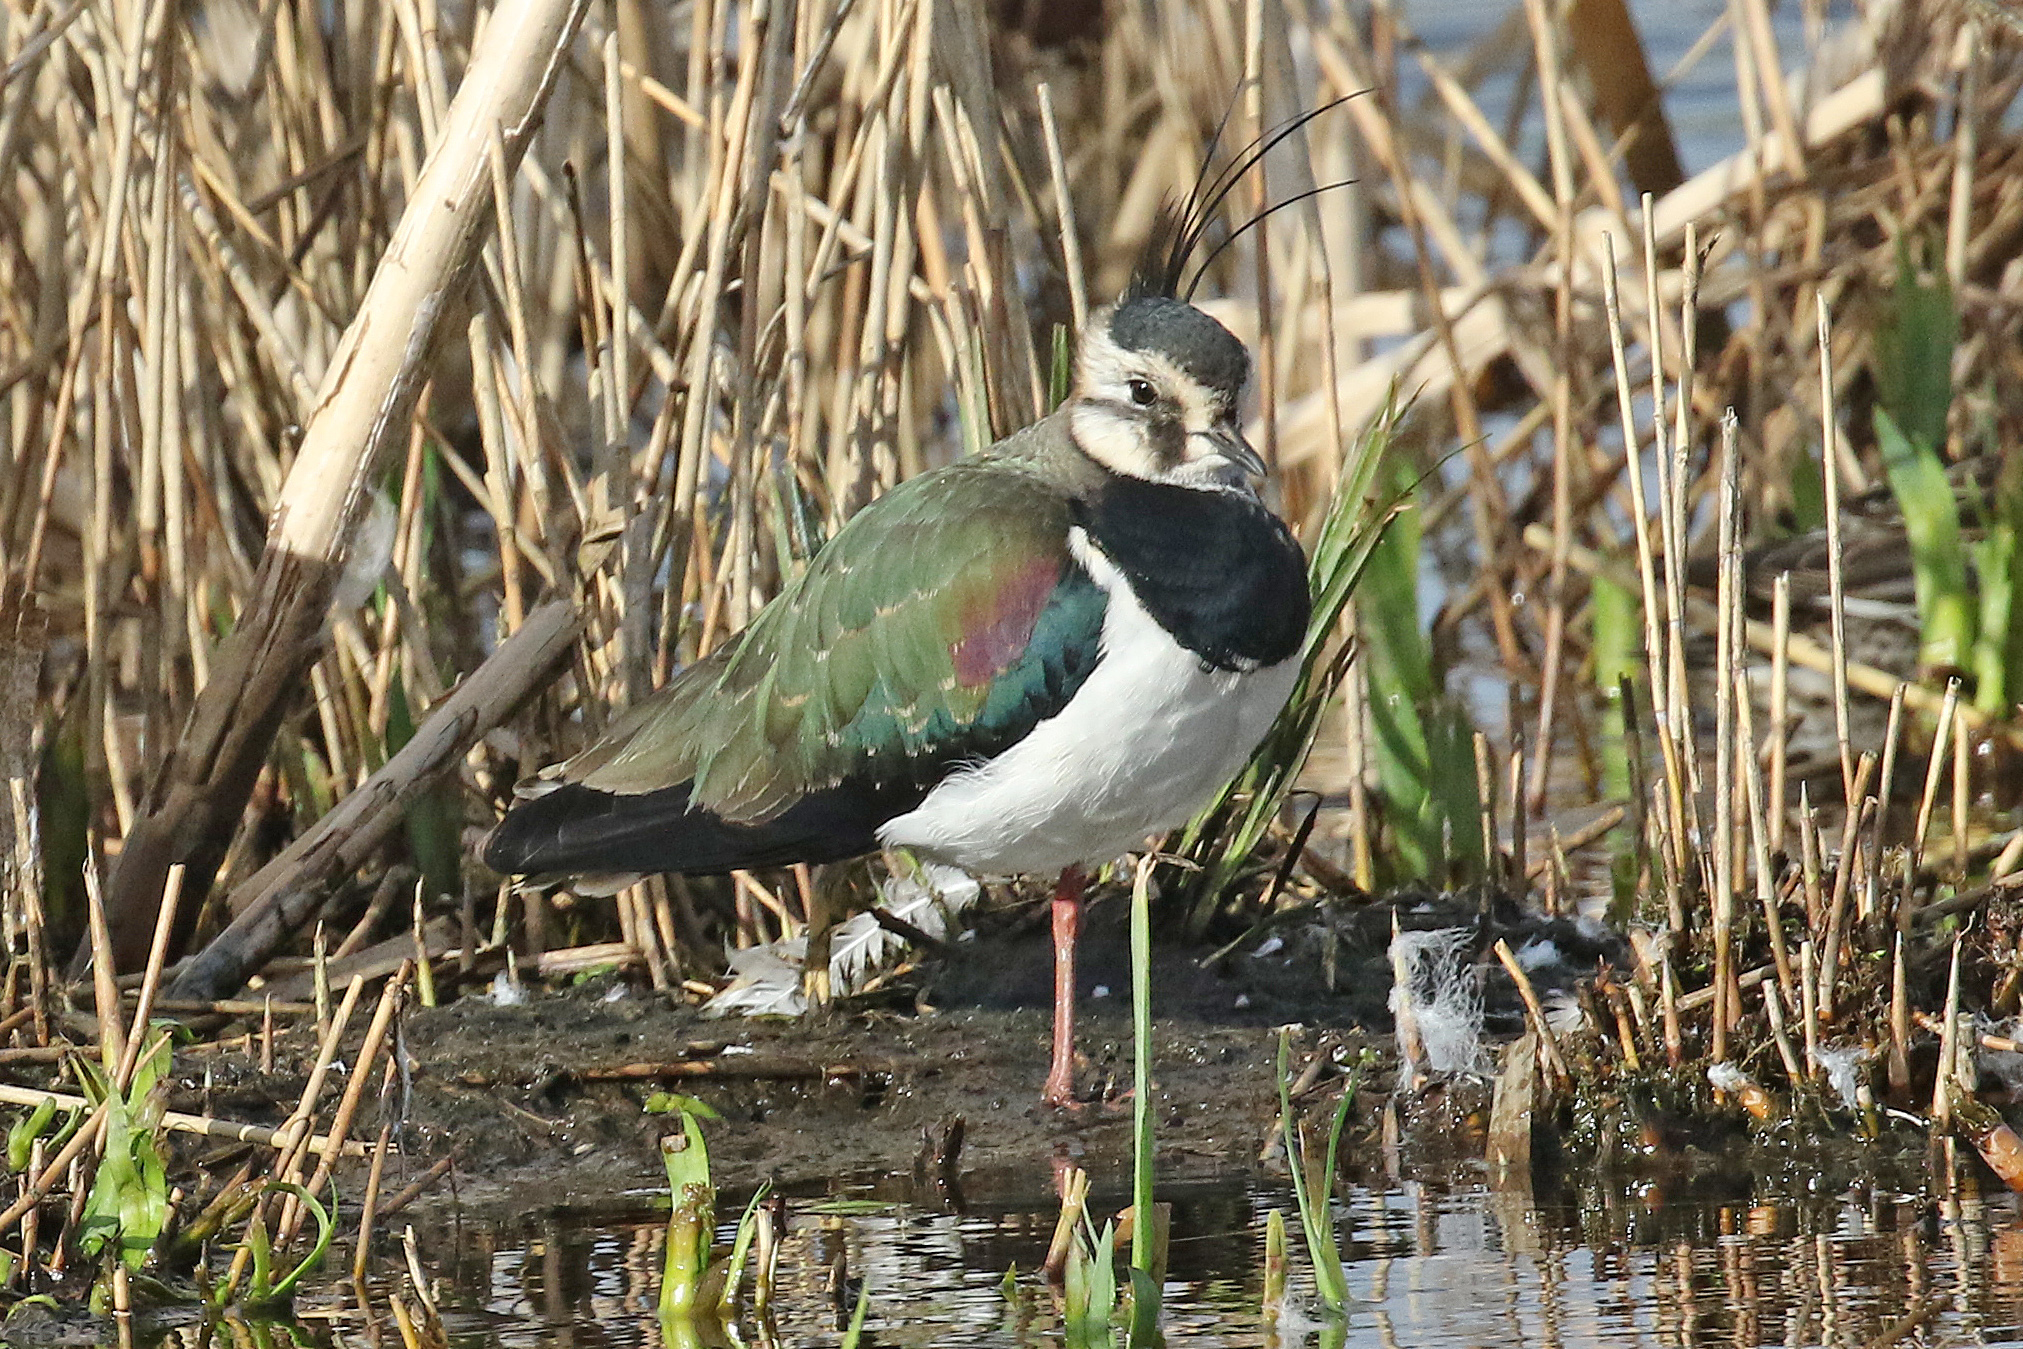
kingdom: Animalia
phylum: Chordata
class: Aves
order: Charadriiformes
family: Charadriidae
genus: Vanellus
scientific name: Vanellus vanellus
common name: Northern lapwing
